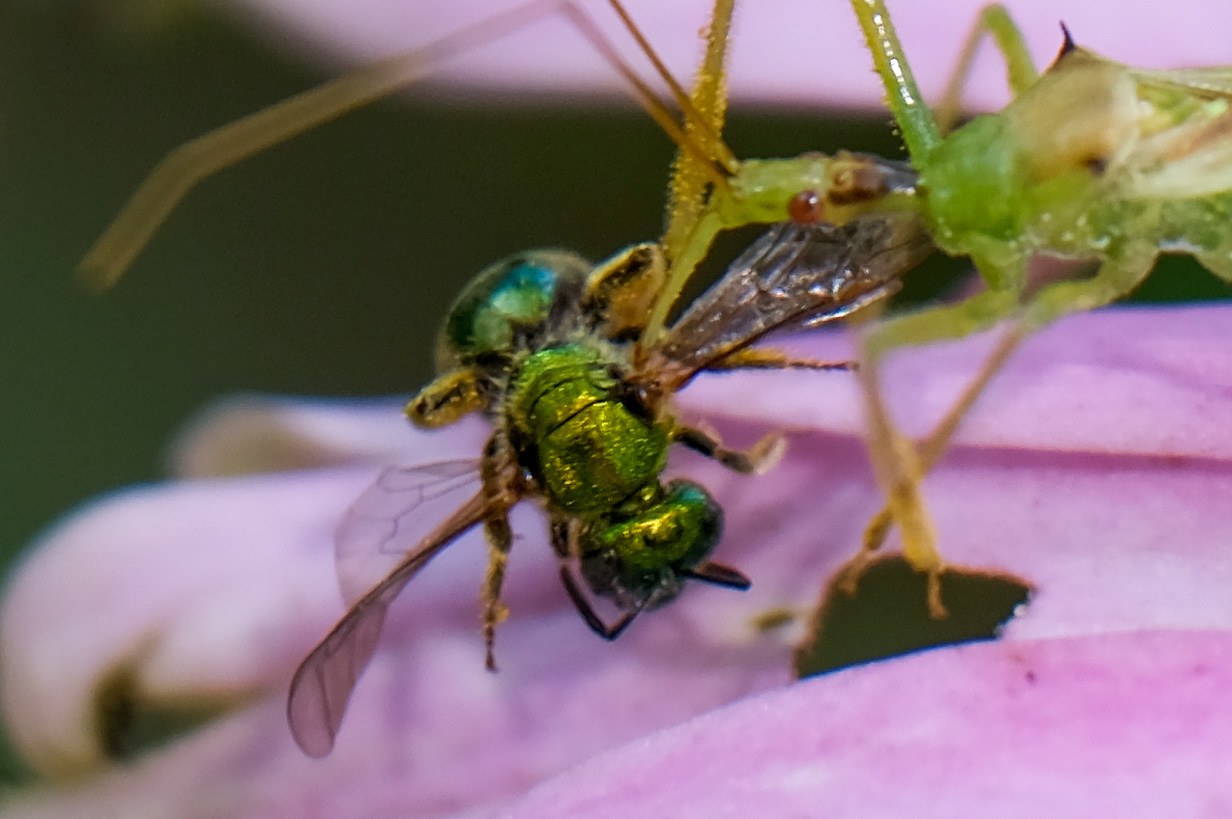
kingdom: Animalia
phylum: Arthropoda
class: Insecta
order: Hymenoptera
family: Halictidae
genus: Augochlora
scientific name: Augochlora pura
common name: Pure green sweat bee
